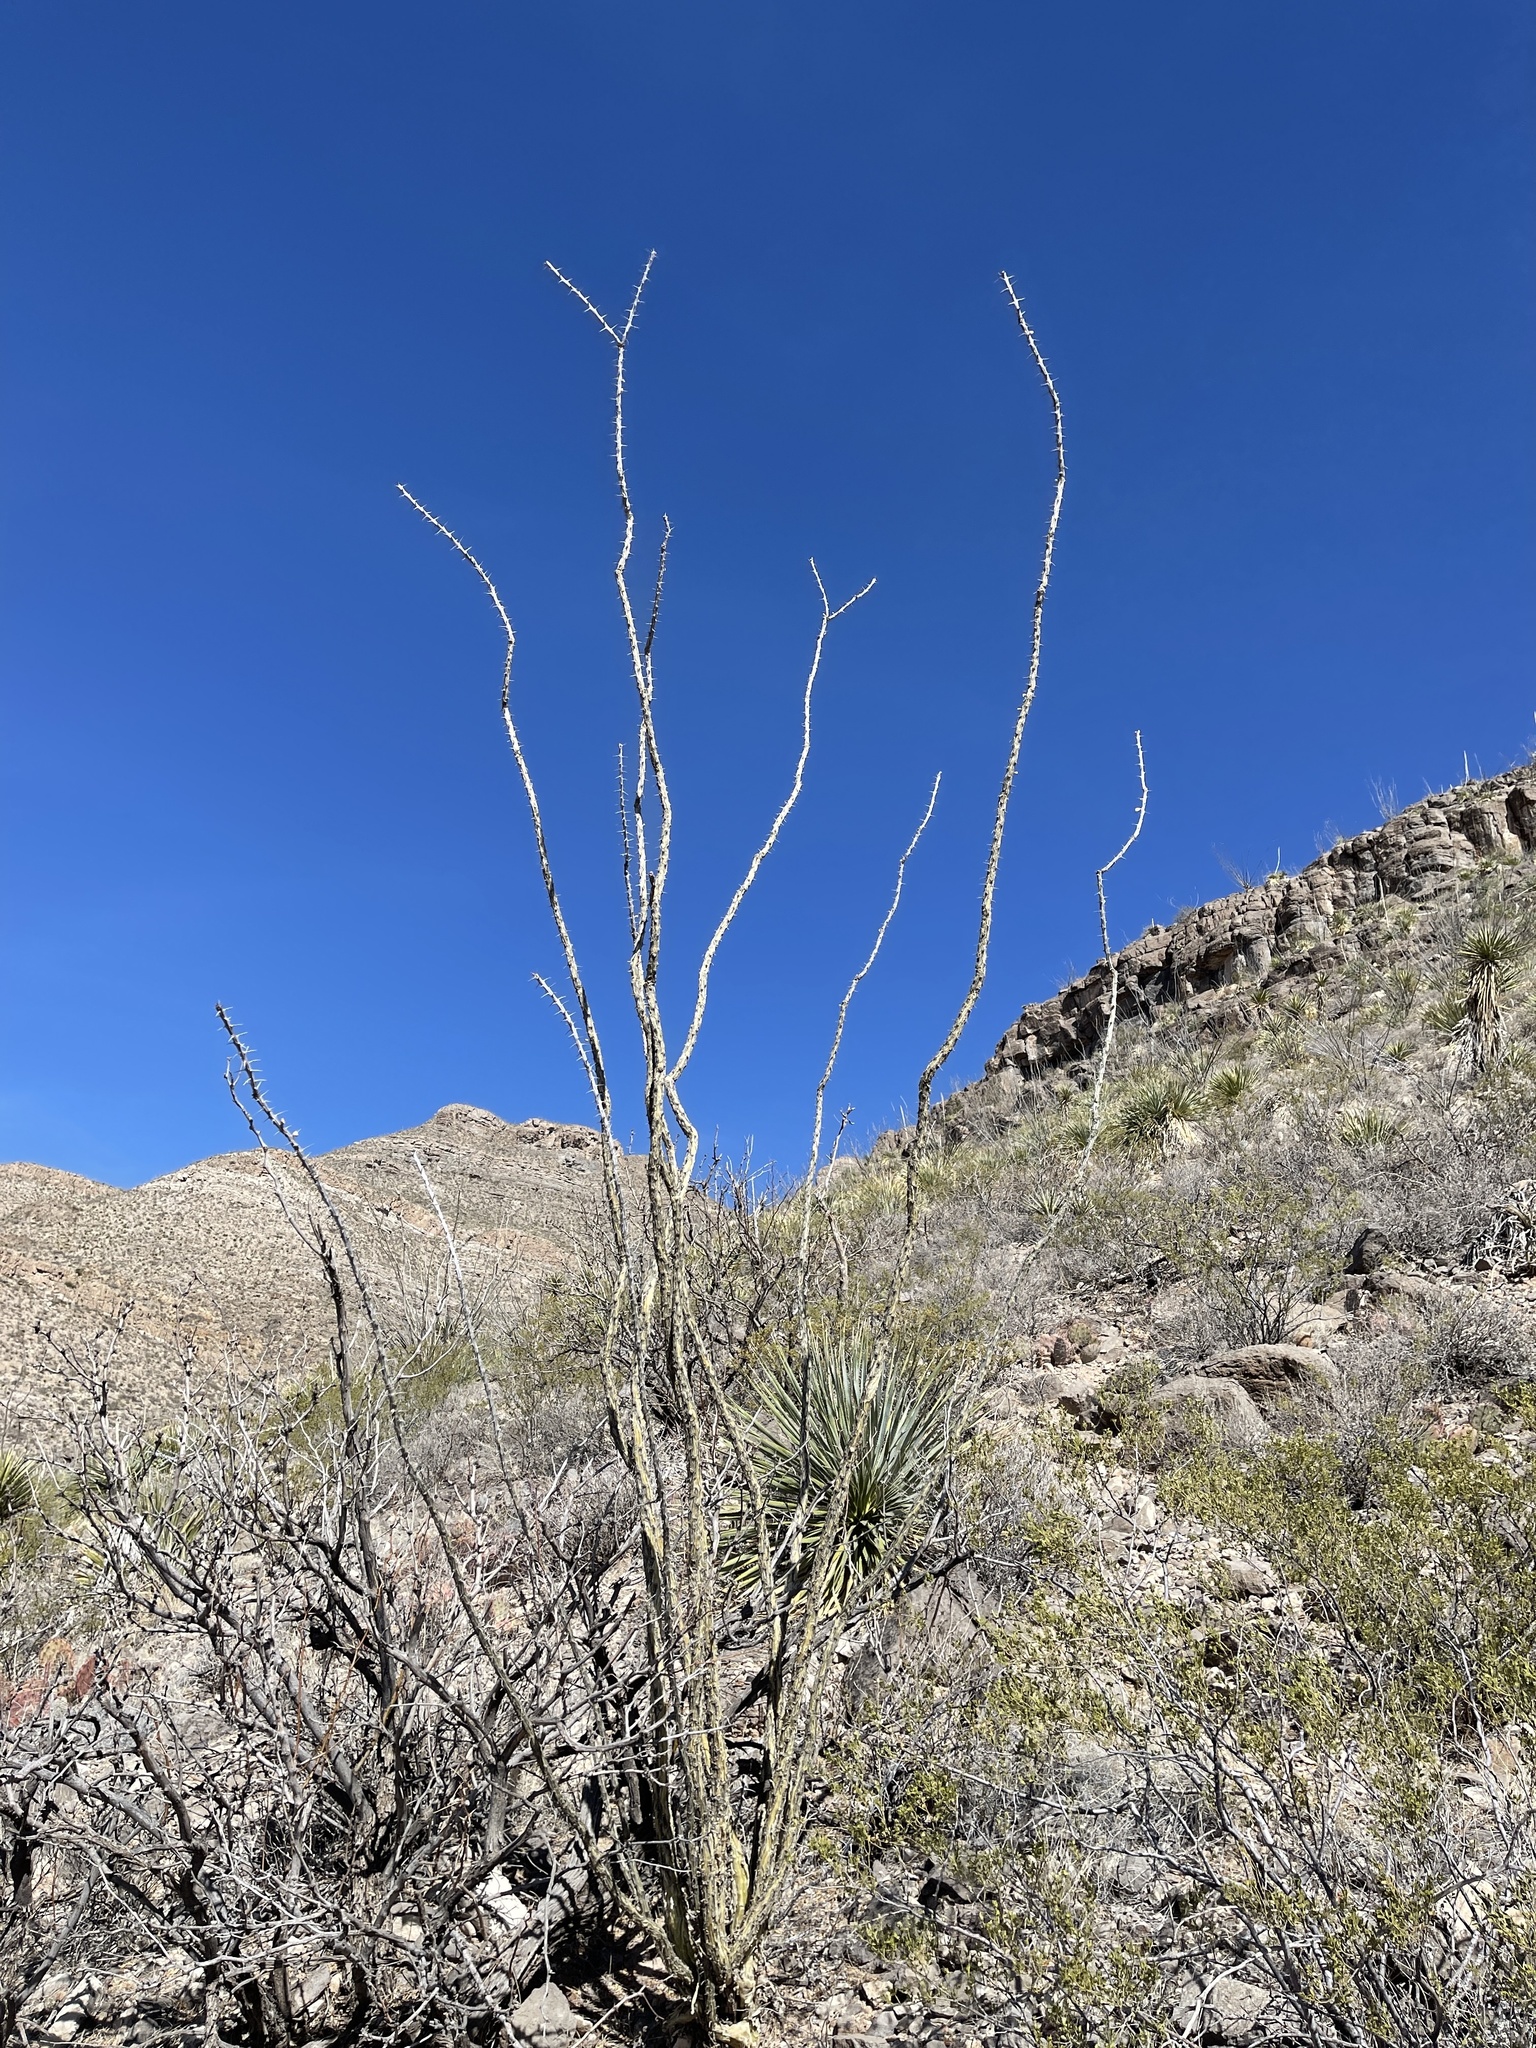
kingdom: Plantae
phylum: Tracheophyta
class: Magnoliopsida
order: Ericales
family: Fouquieriaceae
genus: Fouquieria
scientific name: Fouquieria splendens
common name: Vine-cactus
